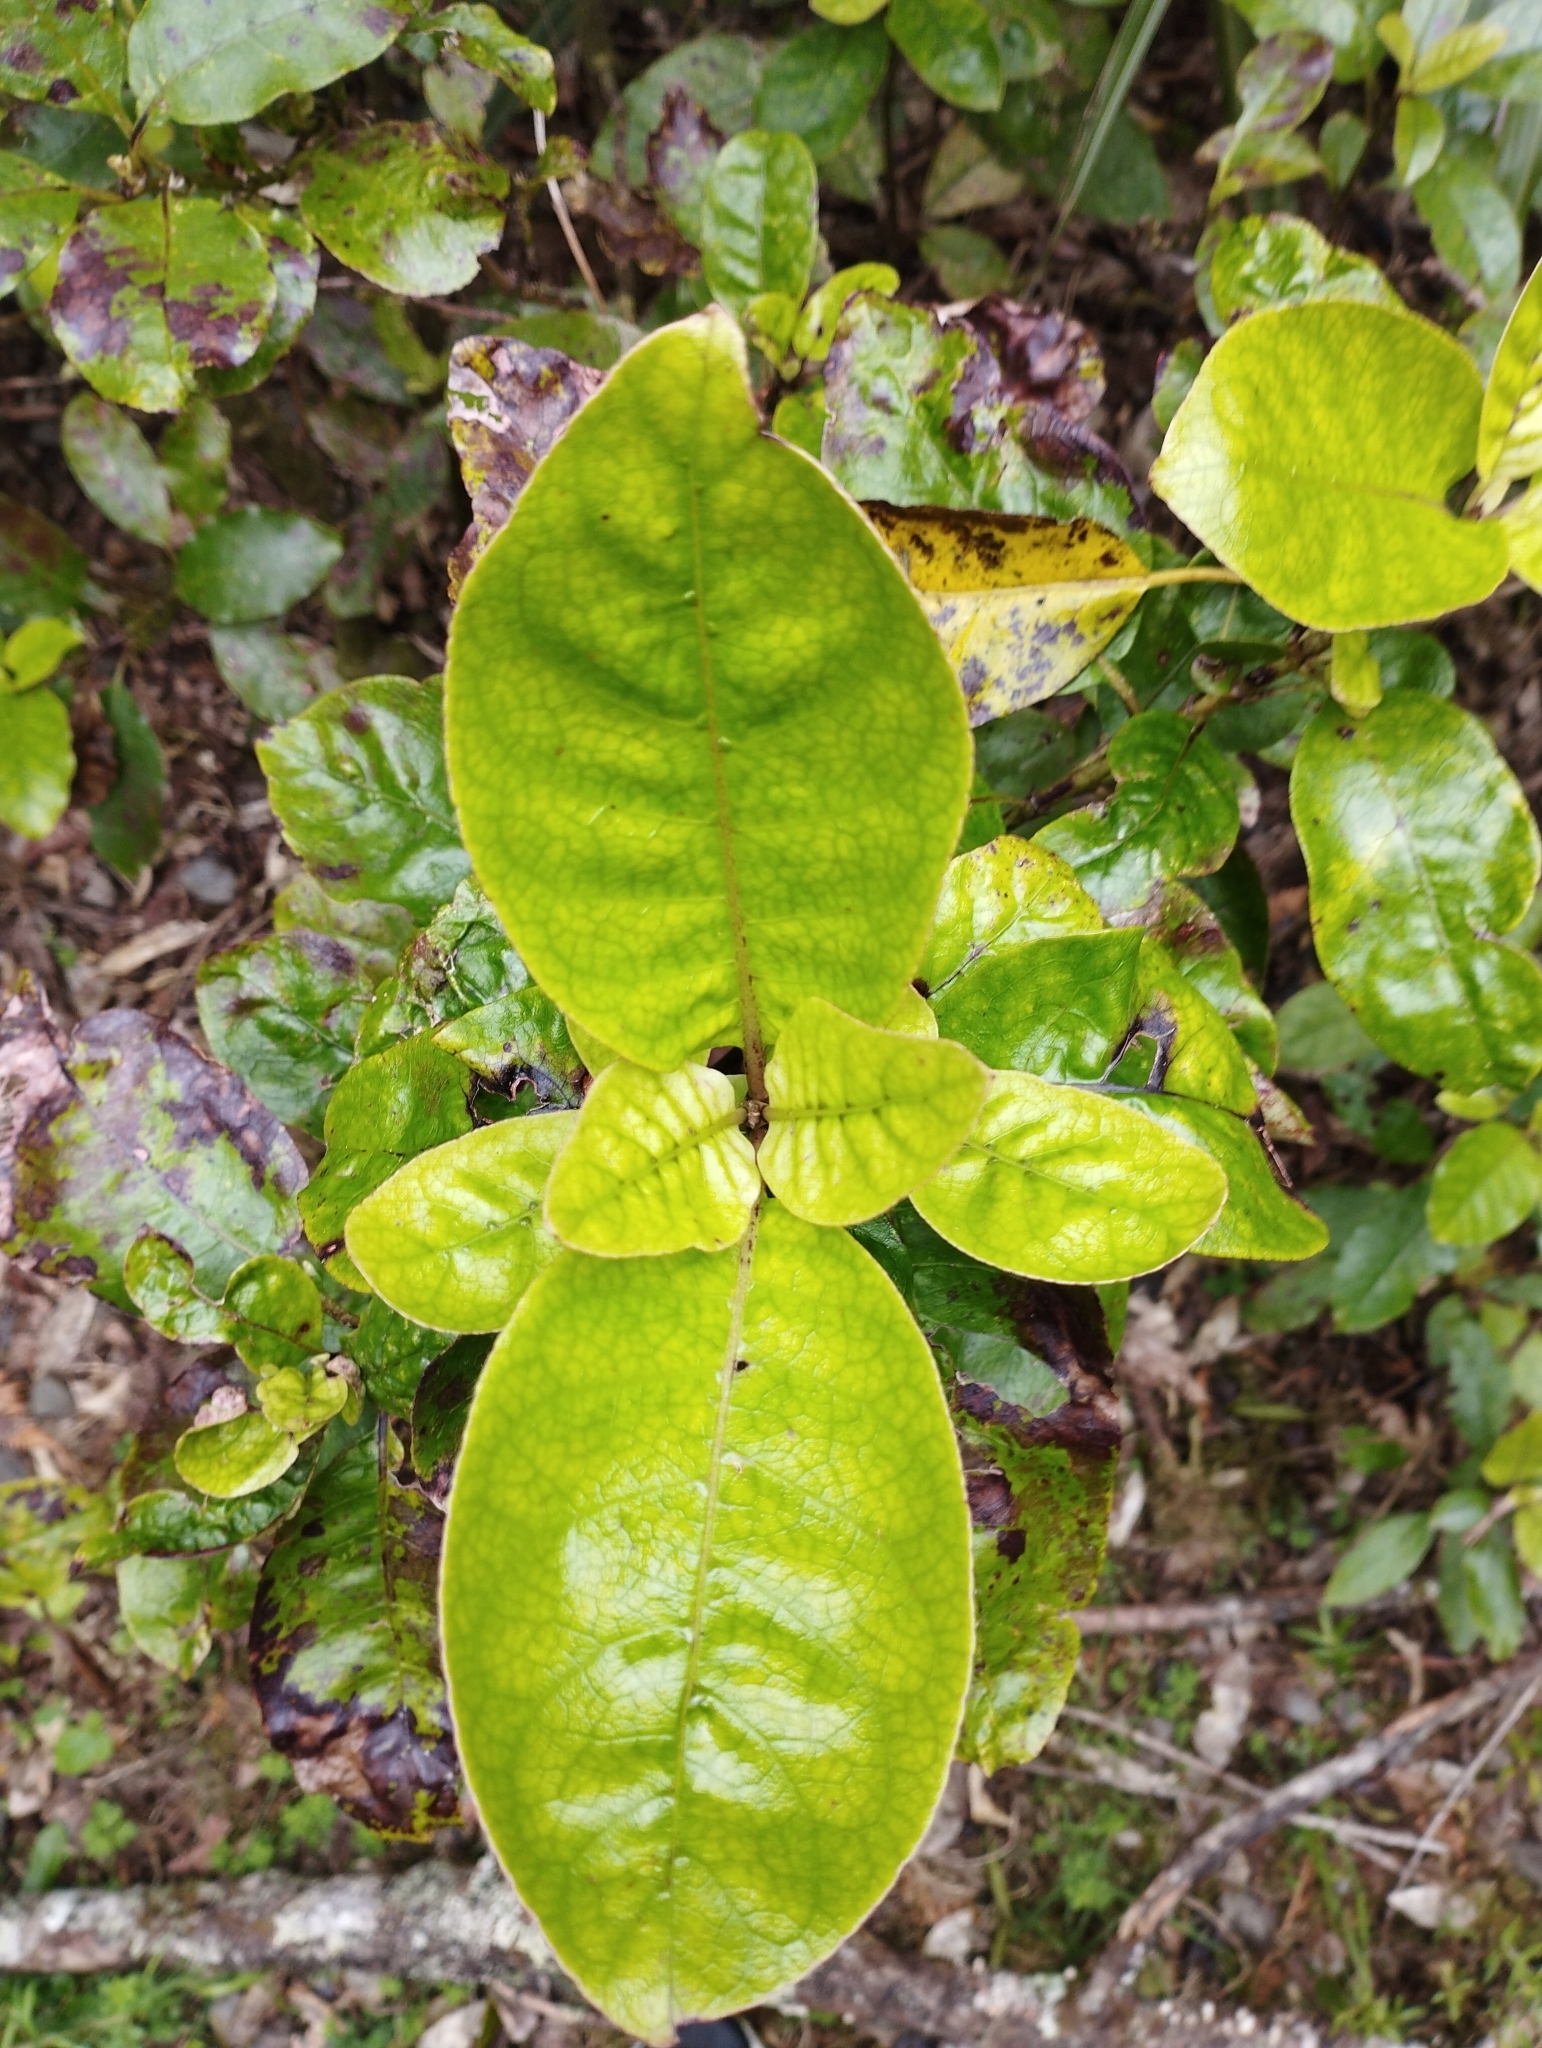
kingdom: Plantae
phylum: Tracheophyta
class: Magnoliopsida
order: Gentianales
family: Rubiaceae
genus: Coprosma
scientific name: Coprosma autumnalis
